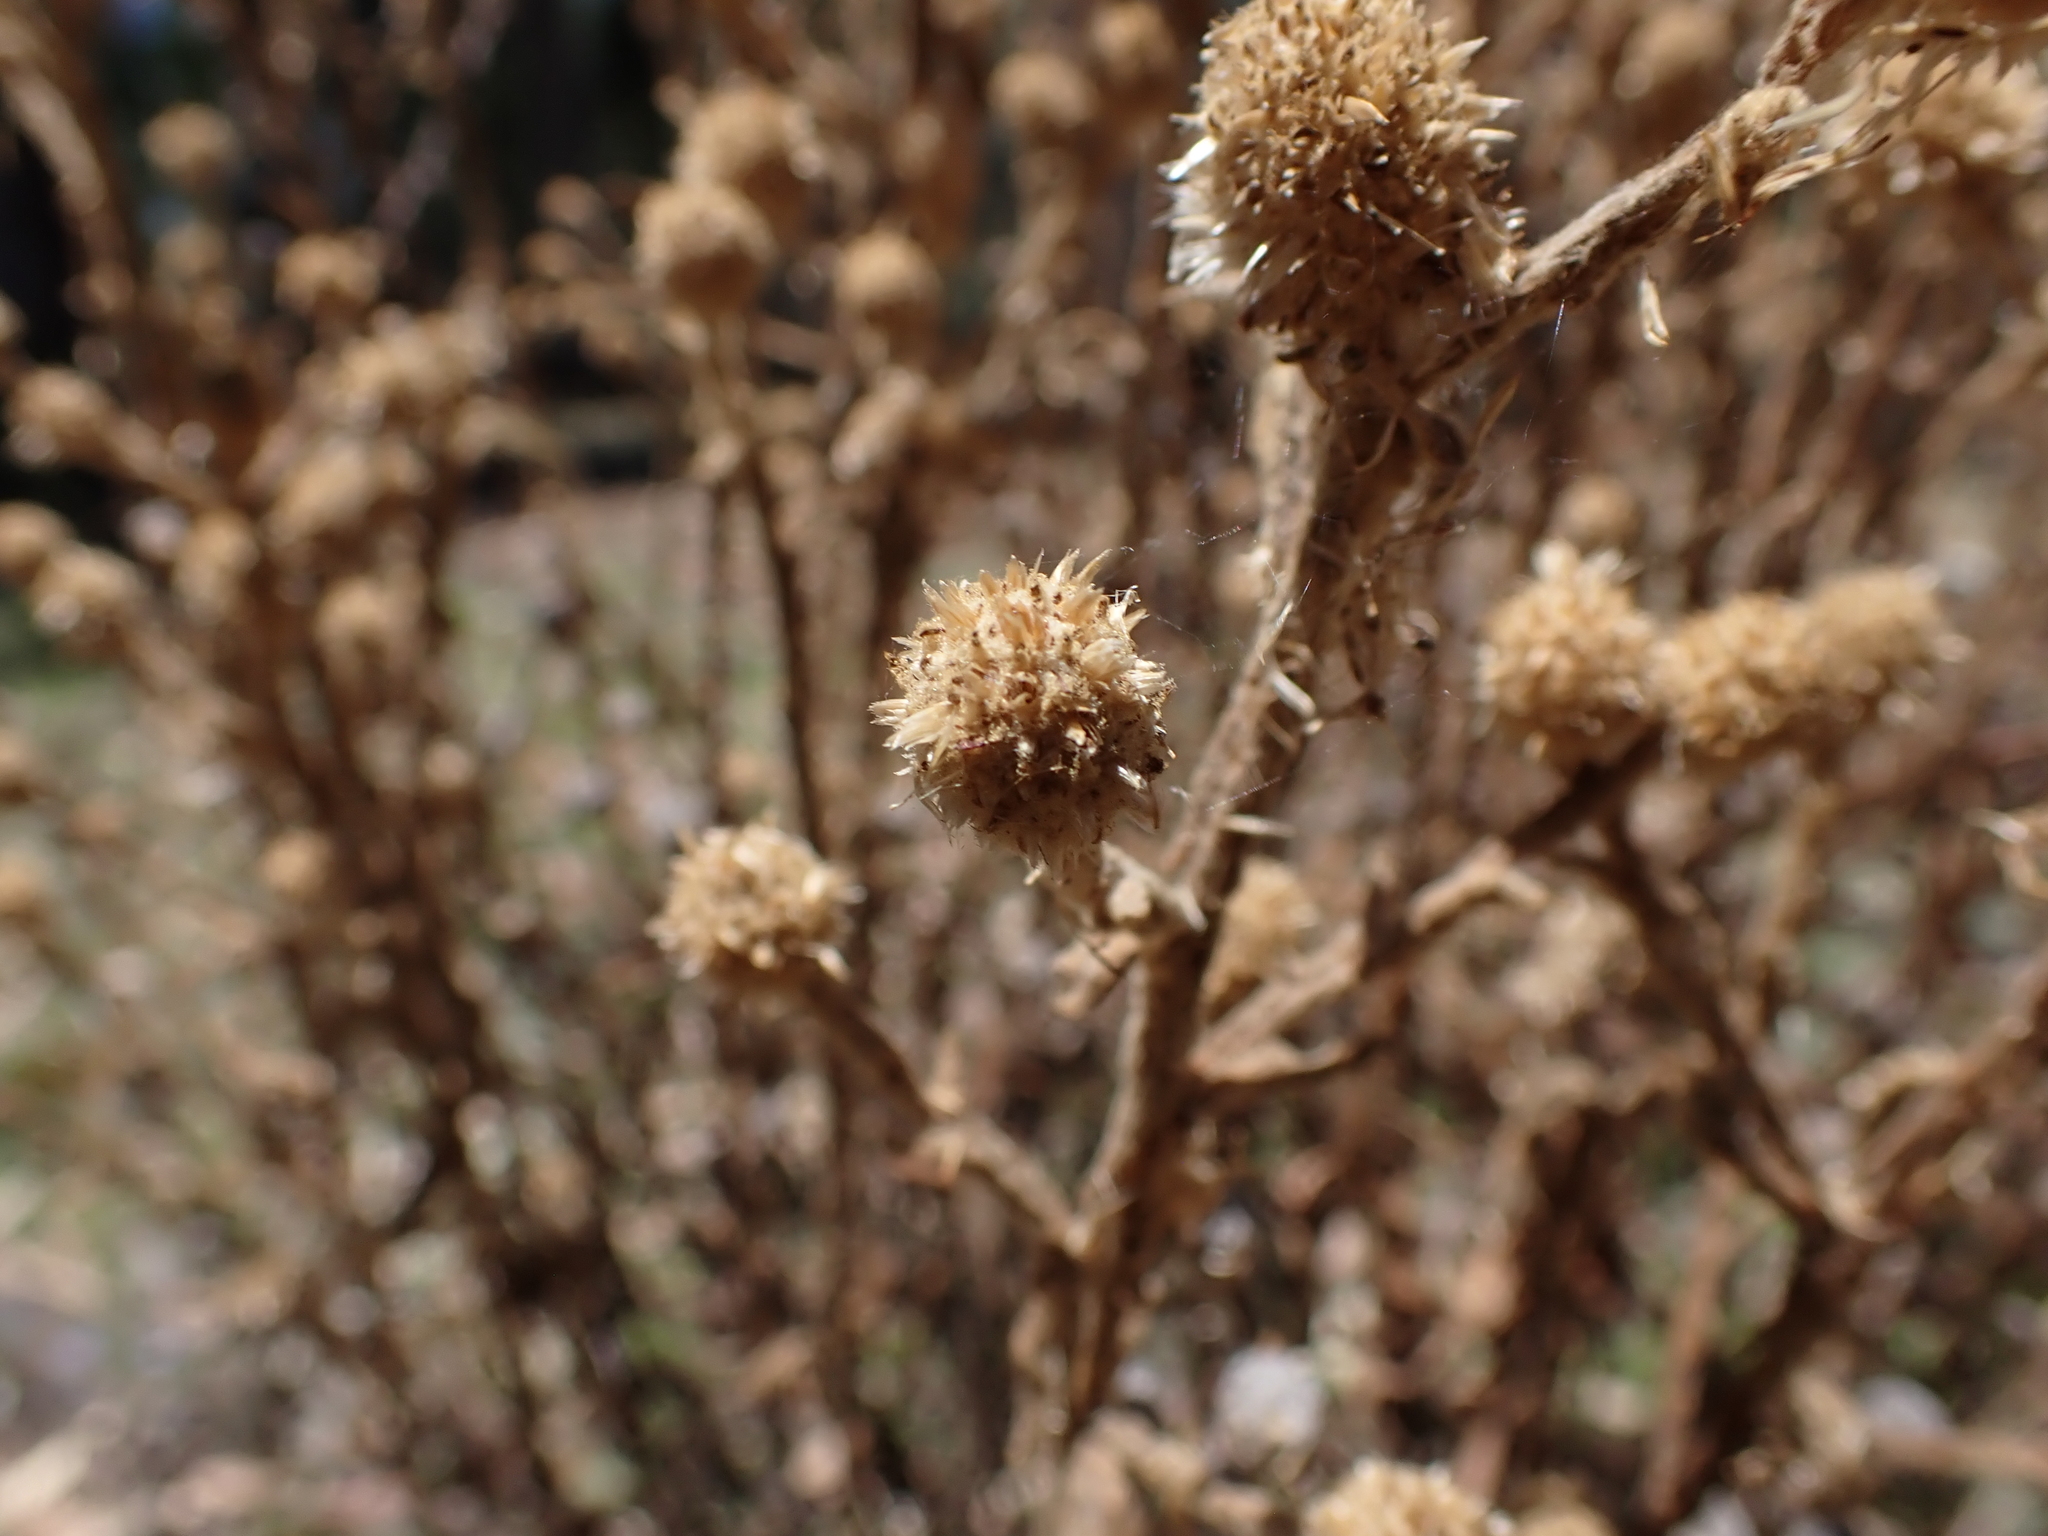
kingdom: Plantae
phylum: Tracheophyta
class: Magnoliopsida
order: Asterales
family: Asteraceae
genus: Pterocaulon
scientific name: Pterocaulon sphacelatum
